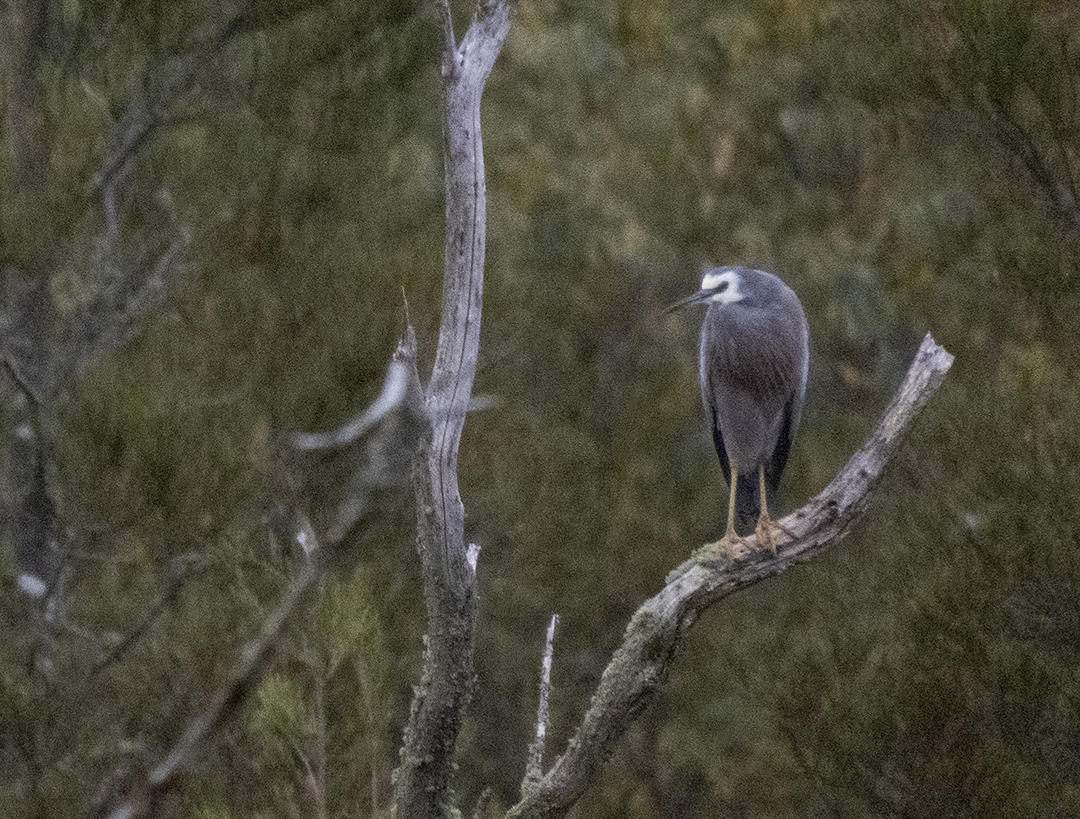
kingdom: Animalia
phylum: Chordata
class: Aves
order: Pelecaniformes
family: Ardeidae
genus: Egretta
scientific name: Egretta novaehollandiae
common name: White-faced heron
